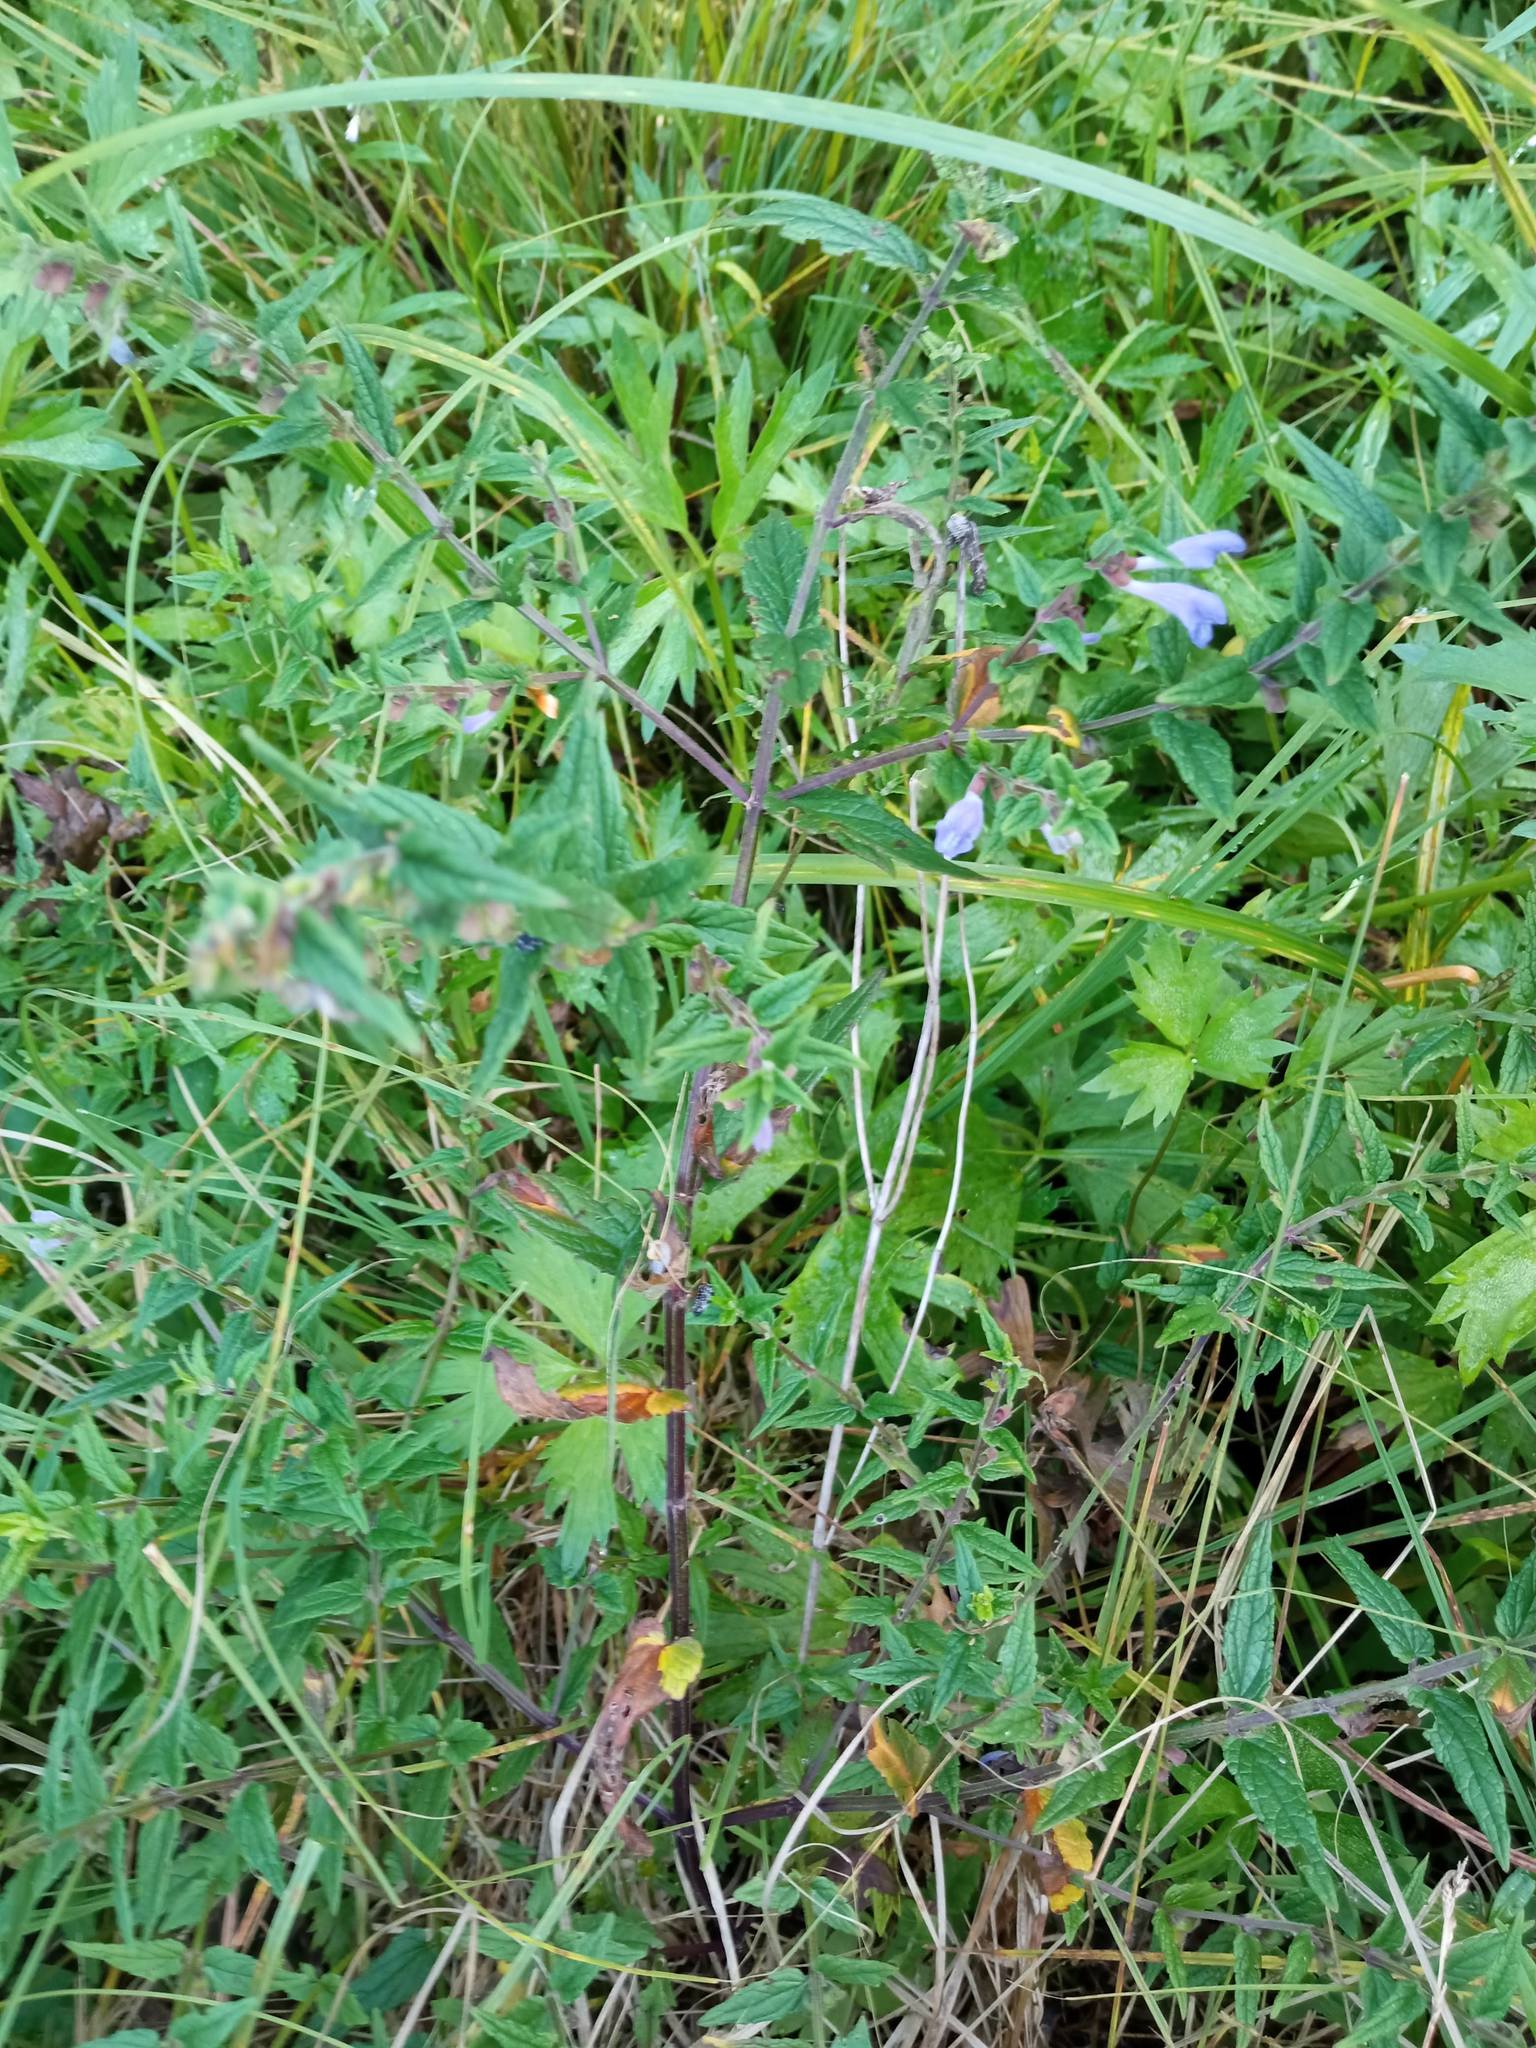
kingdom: Plantae
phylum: Tracheophyta
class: Magnoliopsida
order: Lamiales
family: Lamiaceae
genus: Scutellaria
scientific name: Scutellaria galericulata
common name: Skullcap
